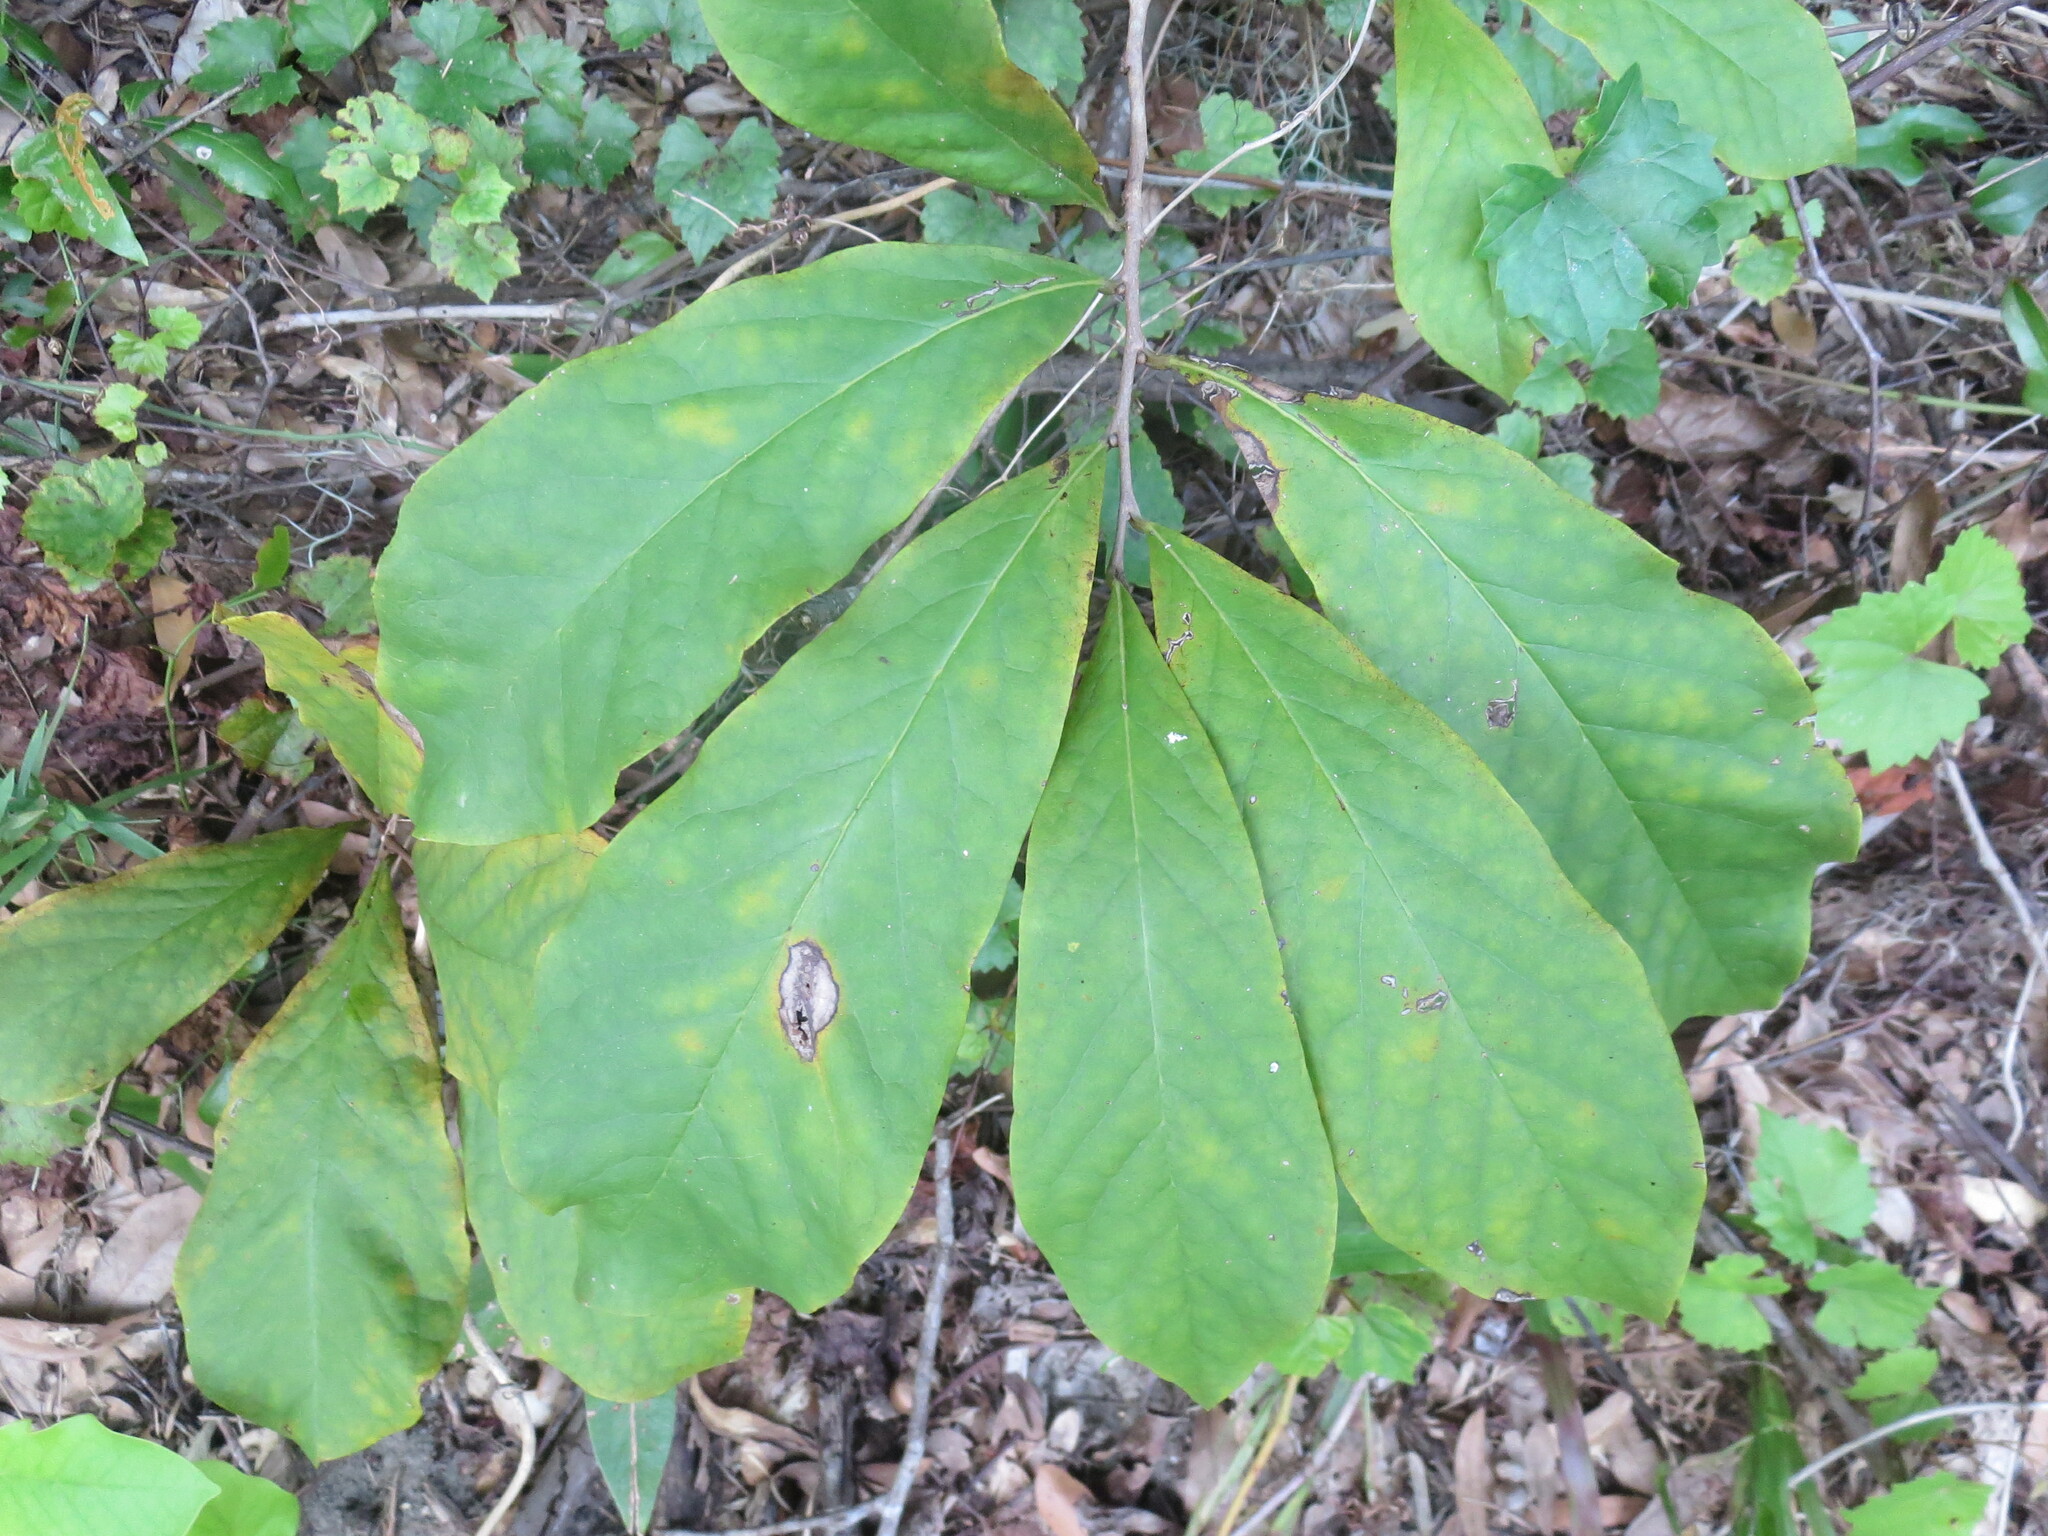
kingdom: Plantae
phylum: Tracheophyta
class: Magnoliopsida
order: Magnoliales
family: Annonaceae
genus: Asimina
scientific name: Asimina parviflora
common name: Dwarf pawpaw
